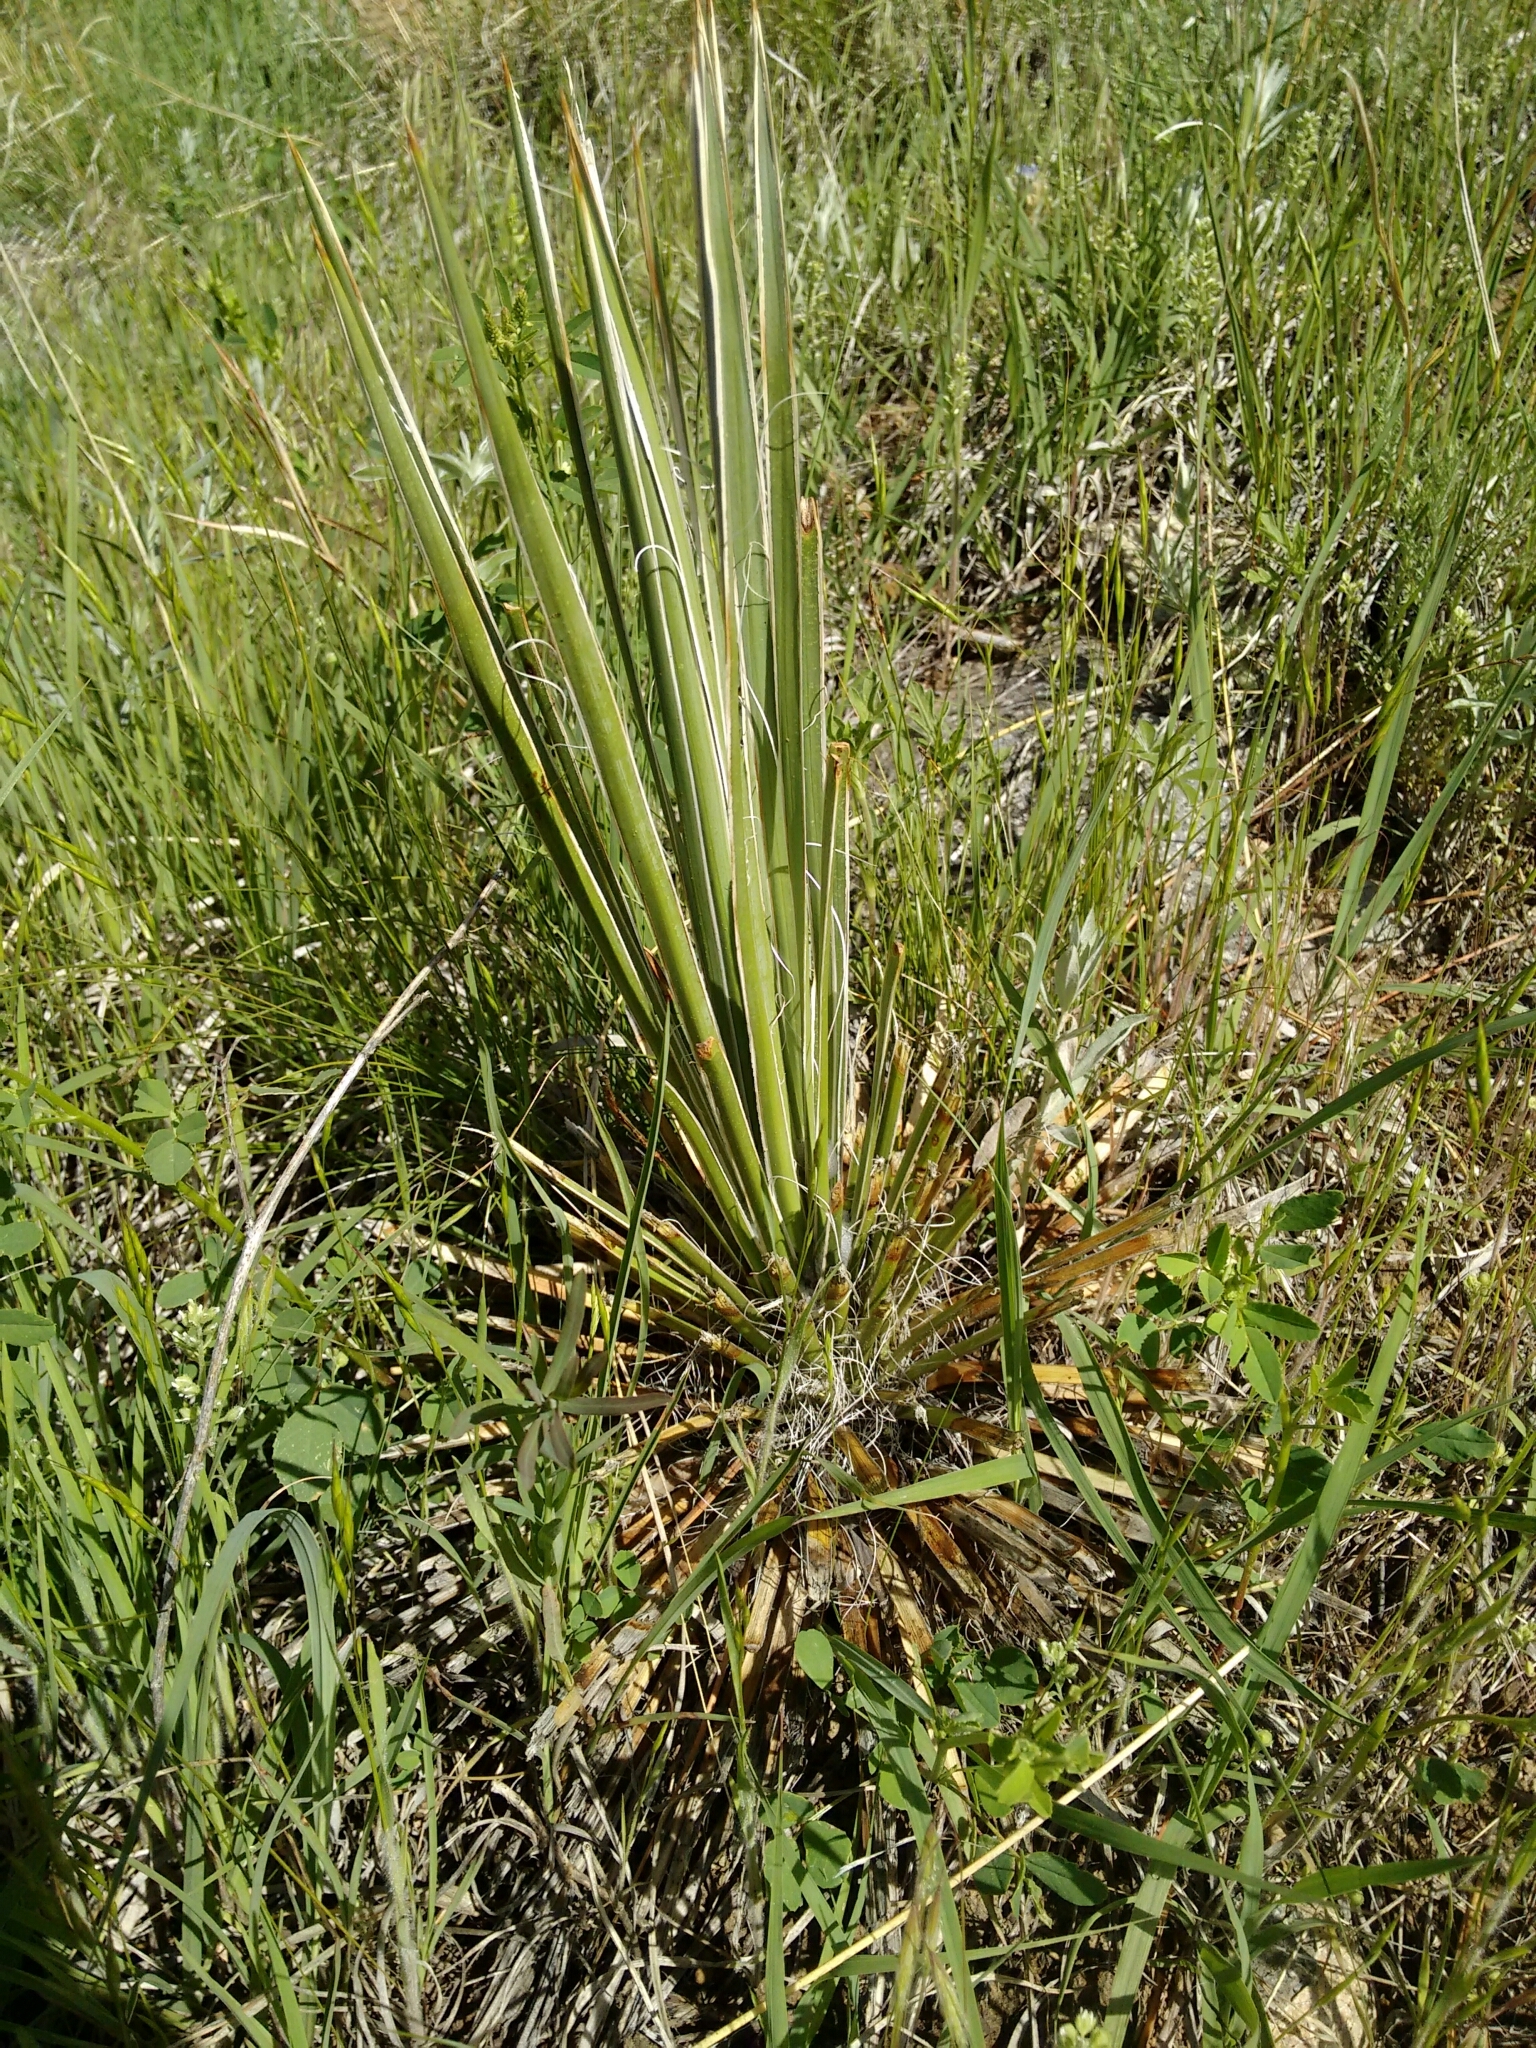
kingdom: Plantae
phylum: Tracheophyta
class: Liliopsida
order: Asparagales
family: Asparagaceae
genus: Yucca
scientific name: Yucca glauca
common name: Great plains yucca
